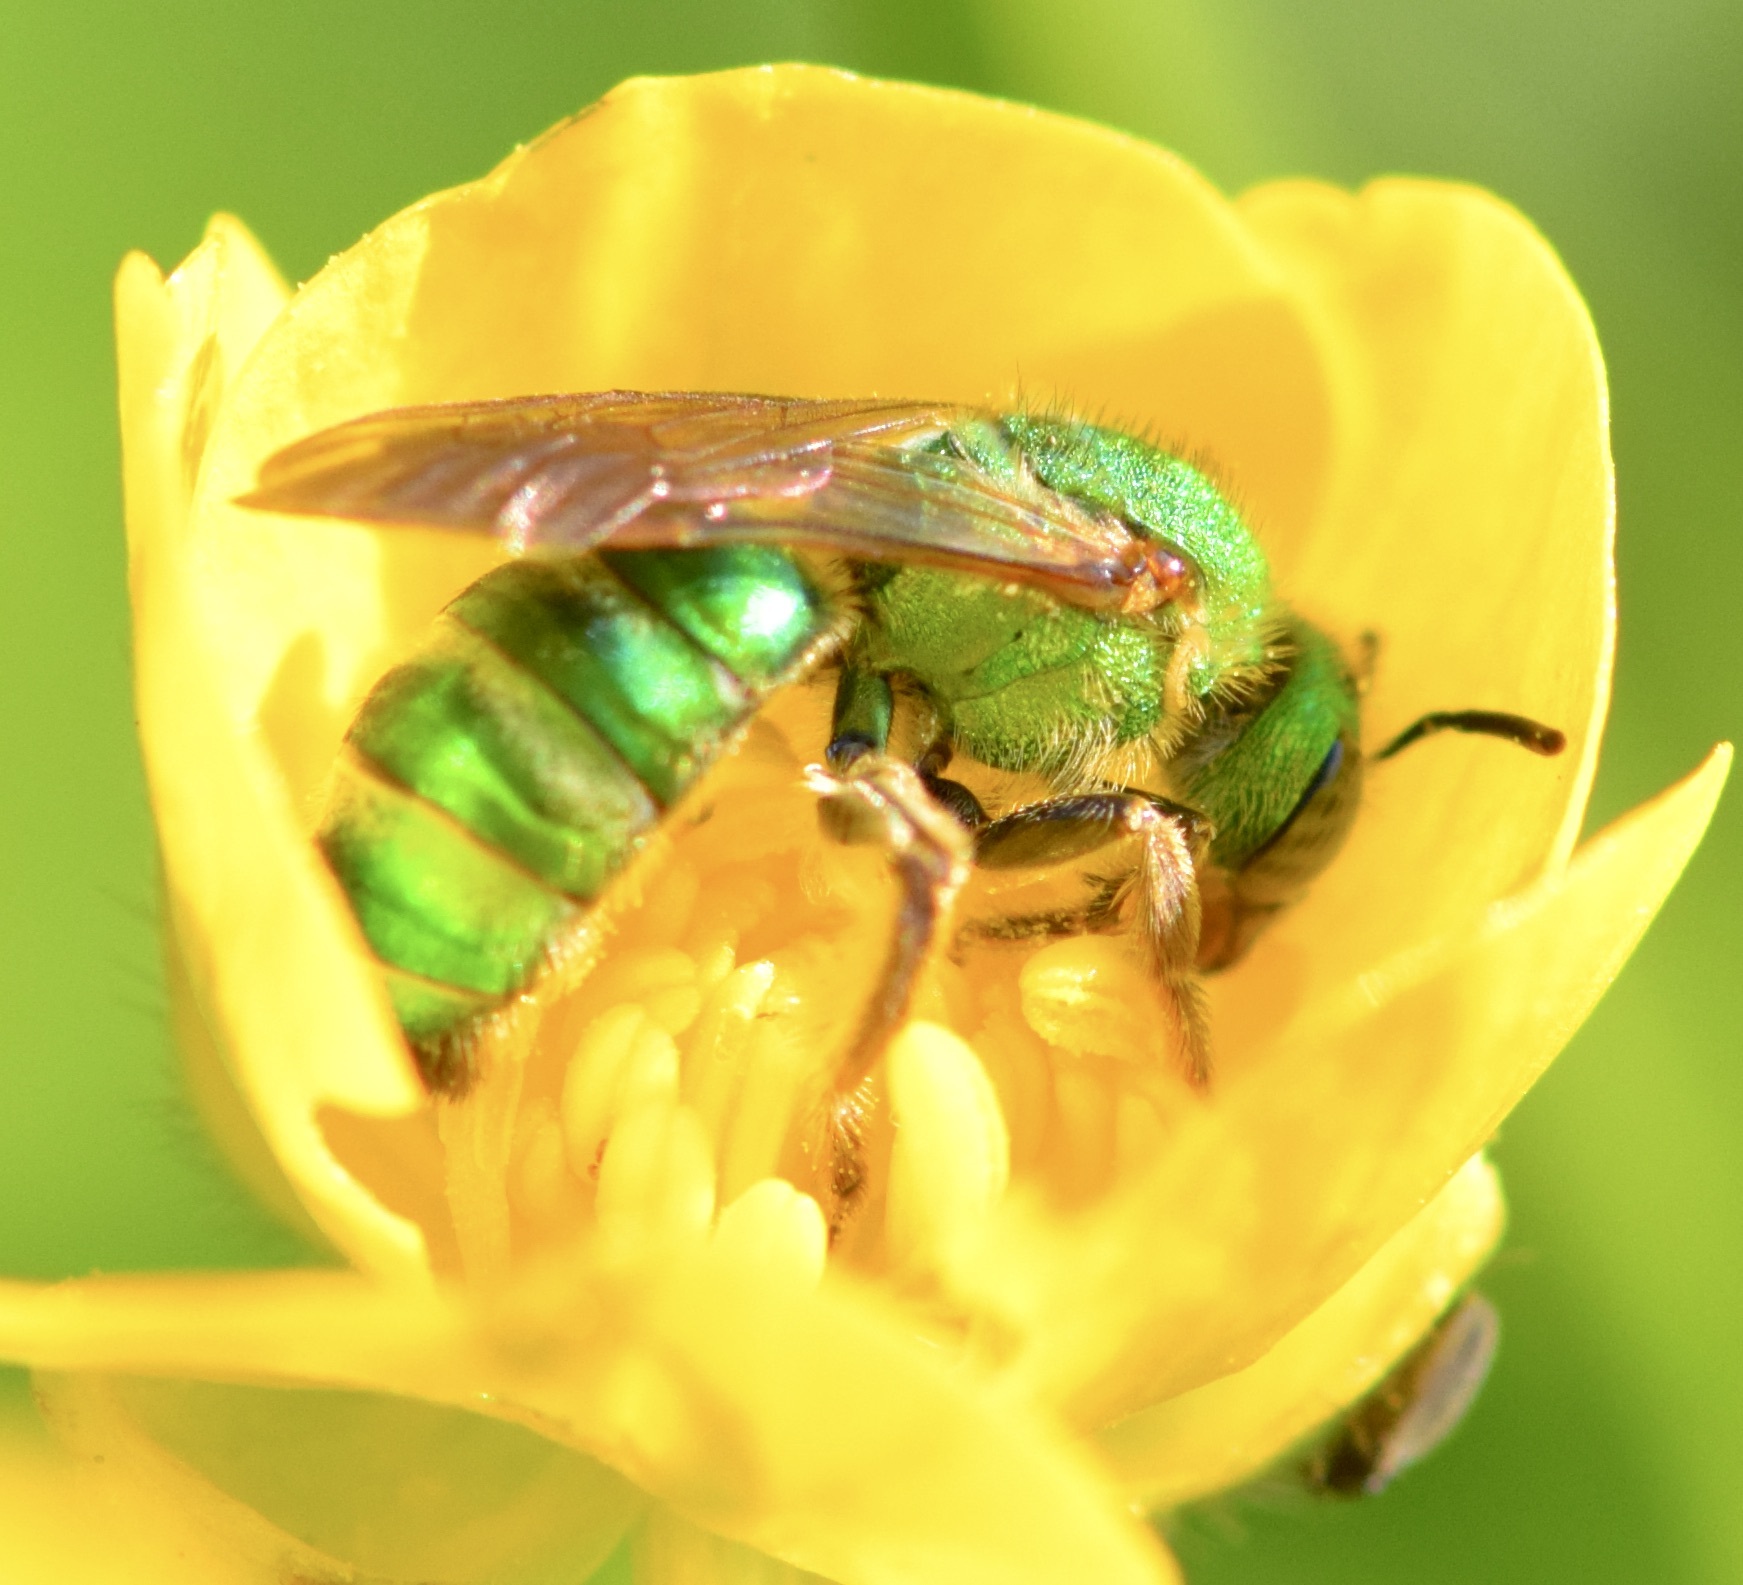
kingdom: Animalia
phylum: Arthropoda
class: Insecta
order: Hymenoptera
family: Halictidae
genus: Agapostemon
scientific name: Agapostemon sericeus
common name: Silky striped sweat bee
